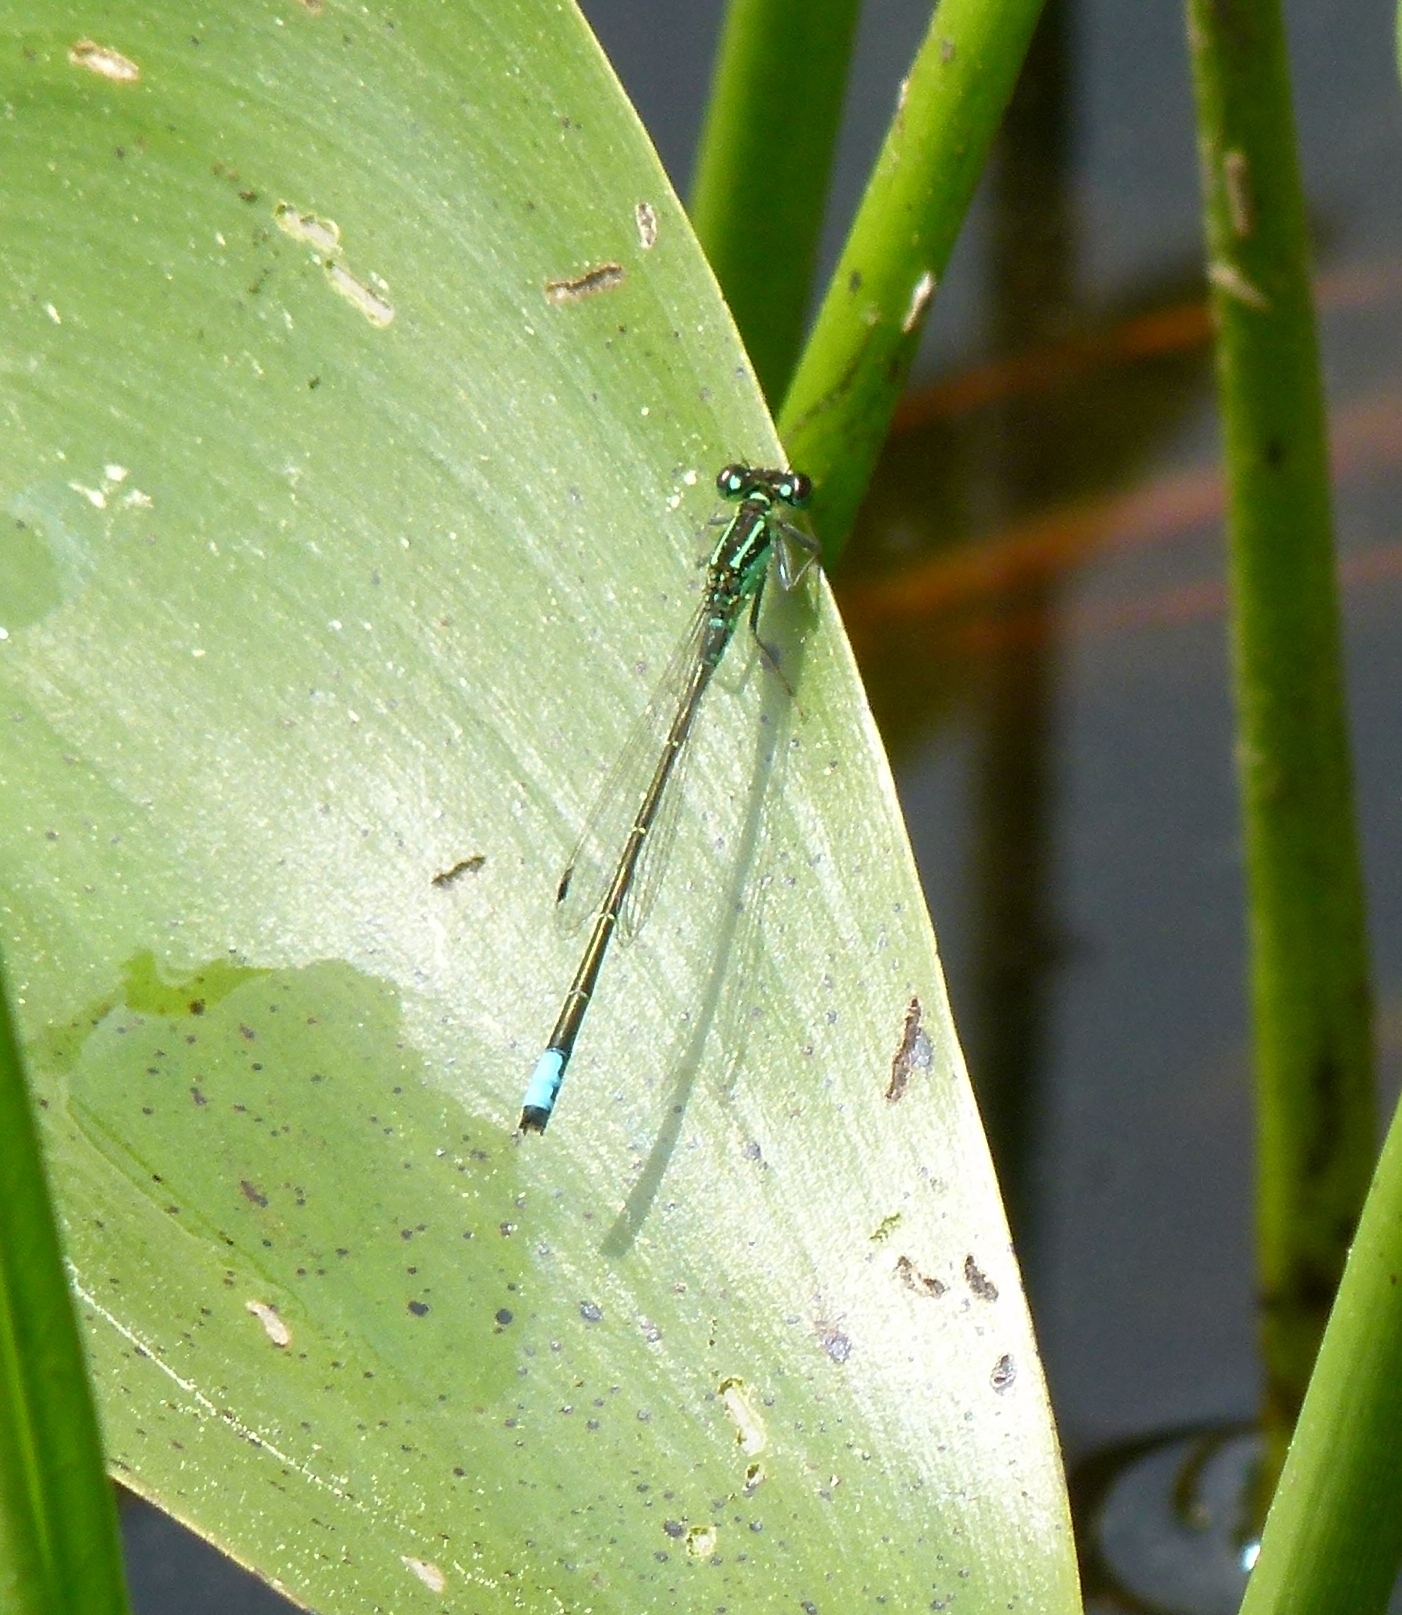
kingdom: Animalia
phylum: Arthropoda
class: Insecta
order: Odonata
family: Coenagrionidae
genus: Ischnura
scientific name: Ischnura verticalis
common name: Eastern forktail
